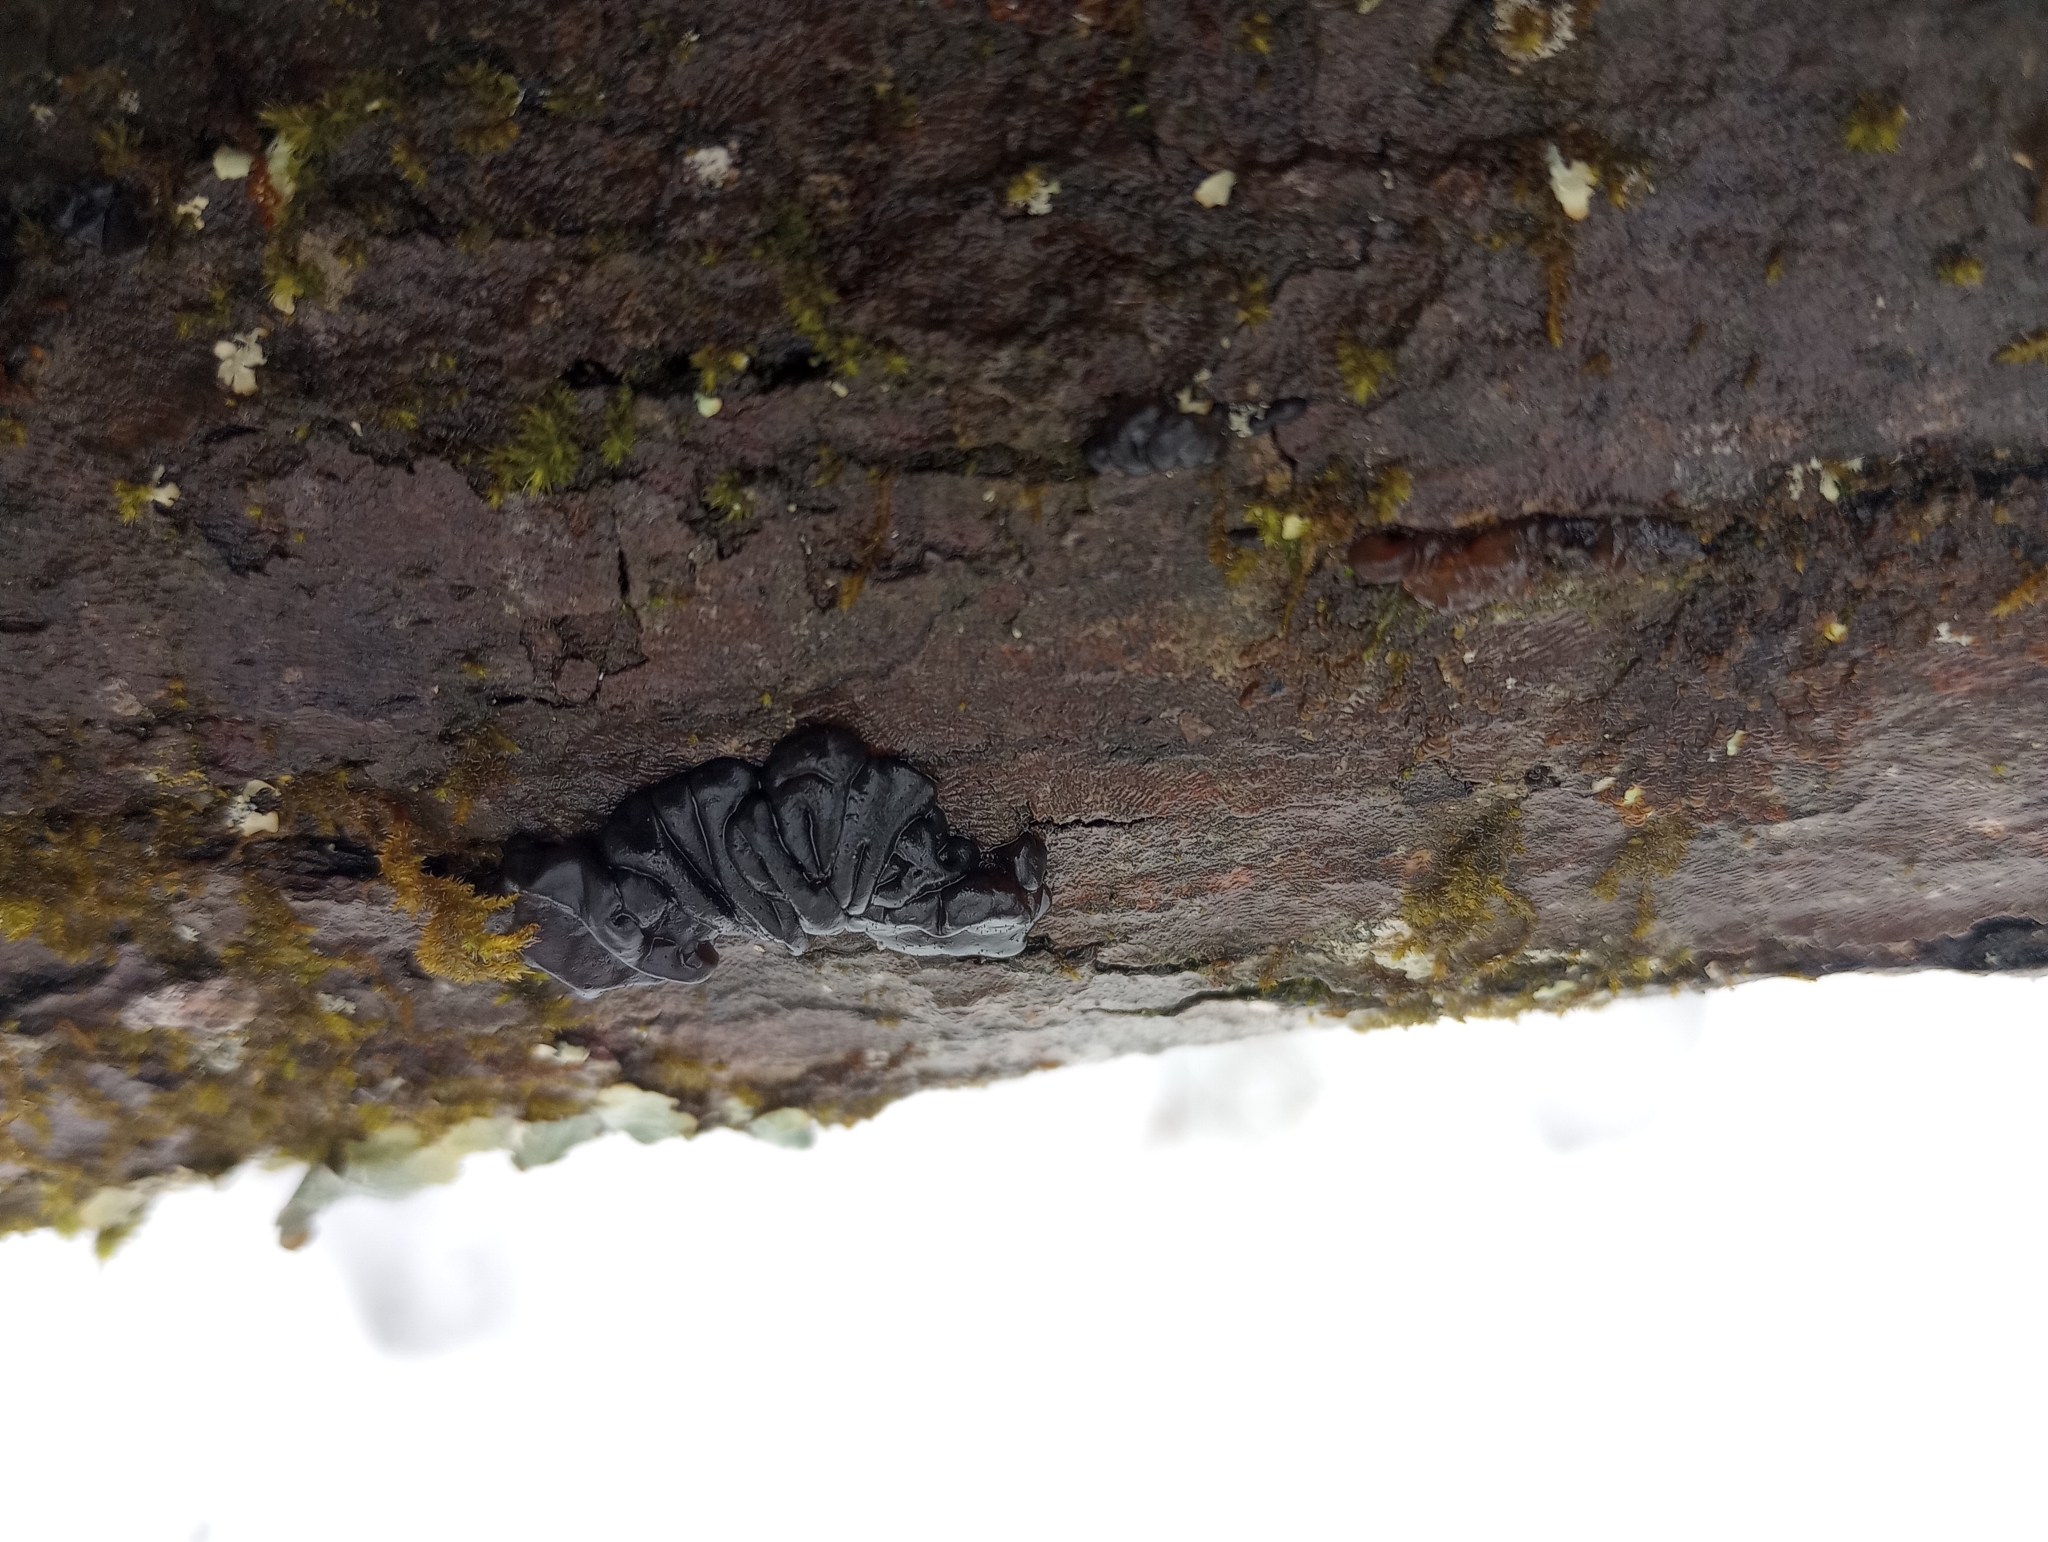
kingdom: Fungi
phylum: Basidiomycota
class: Agaricomycetes
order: Auriculariales
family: Auriculariaceae
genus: Exidia
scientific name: Exidia nigricans
